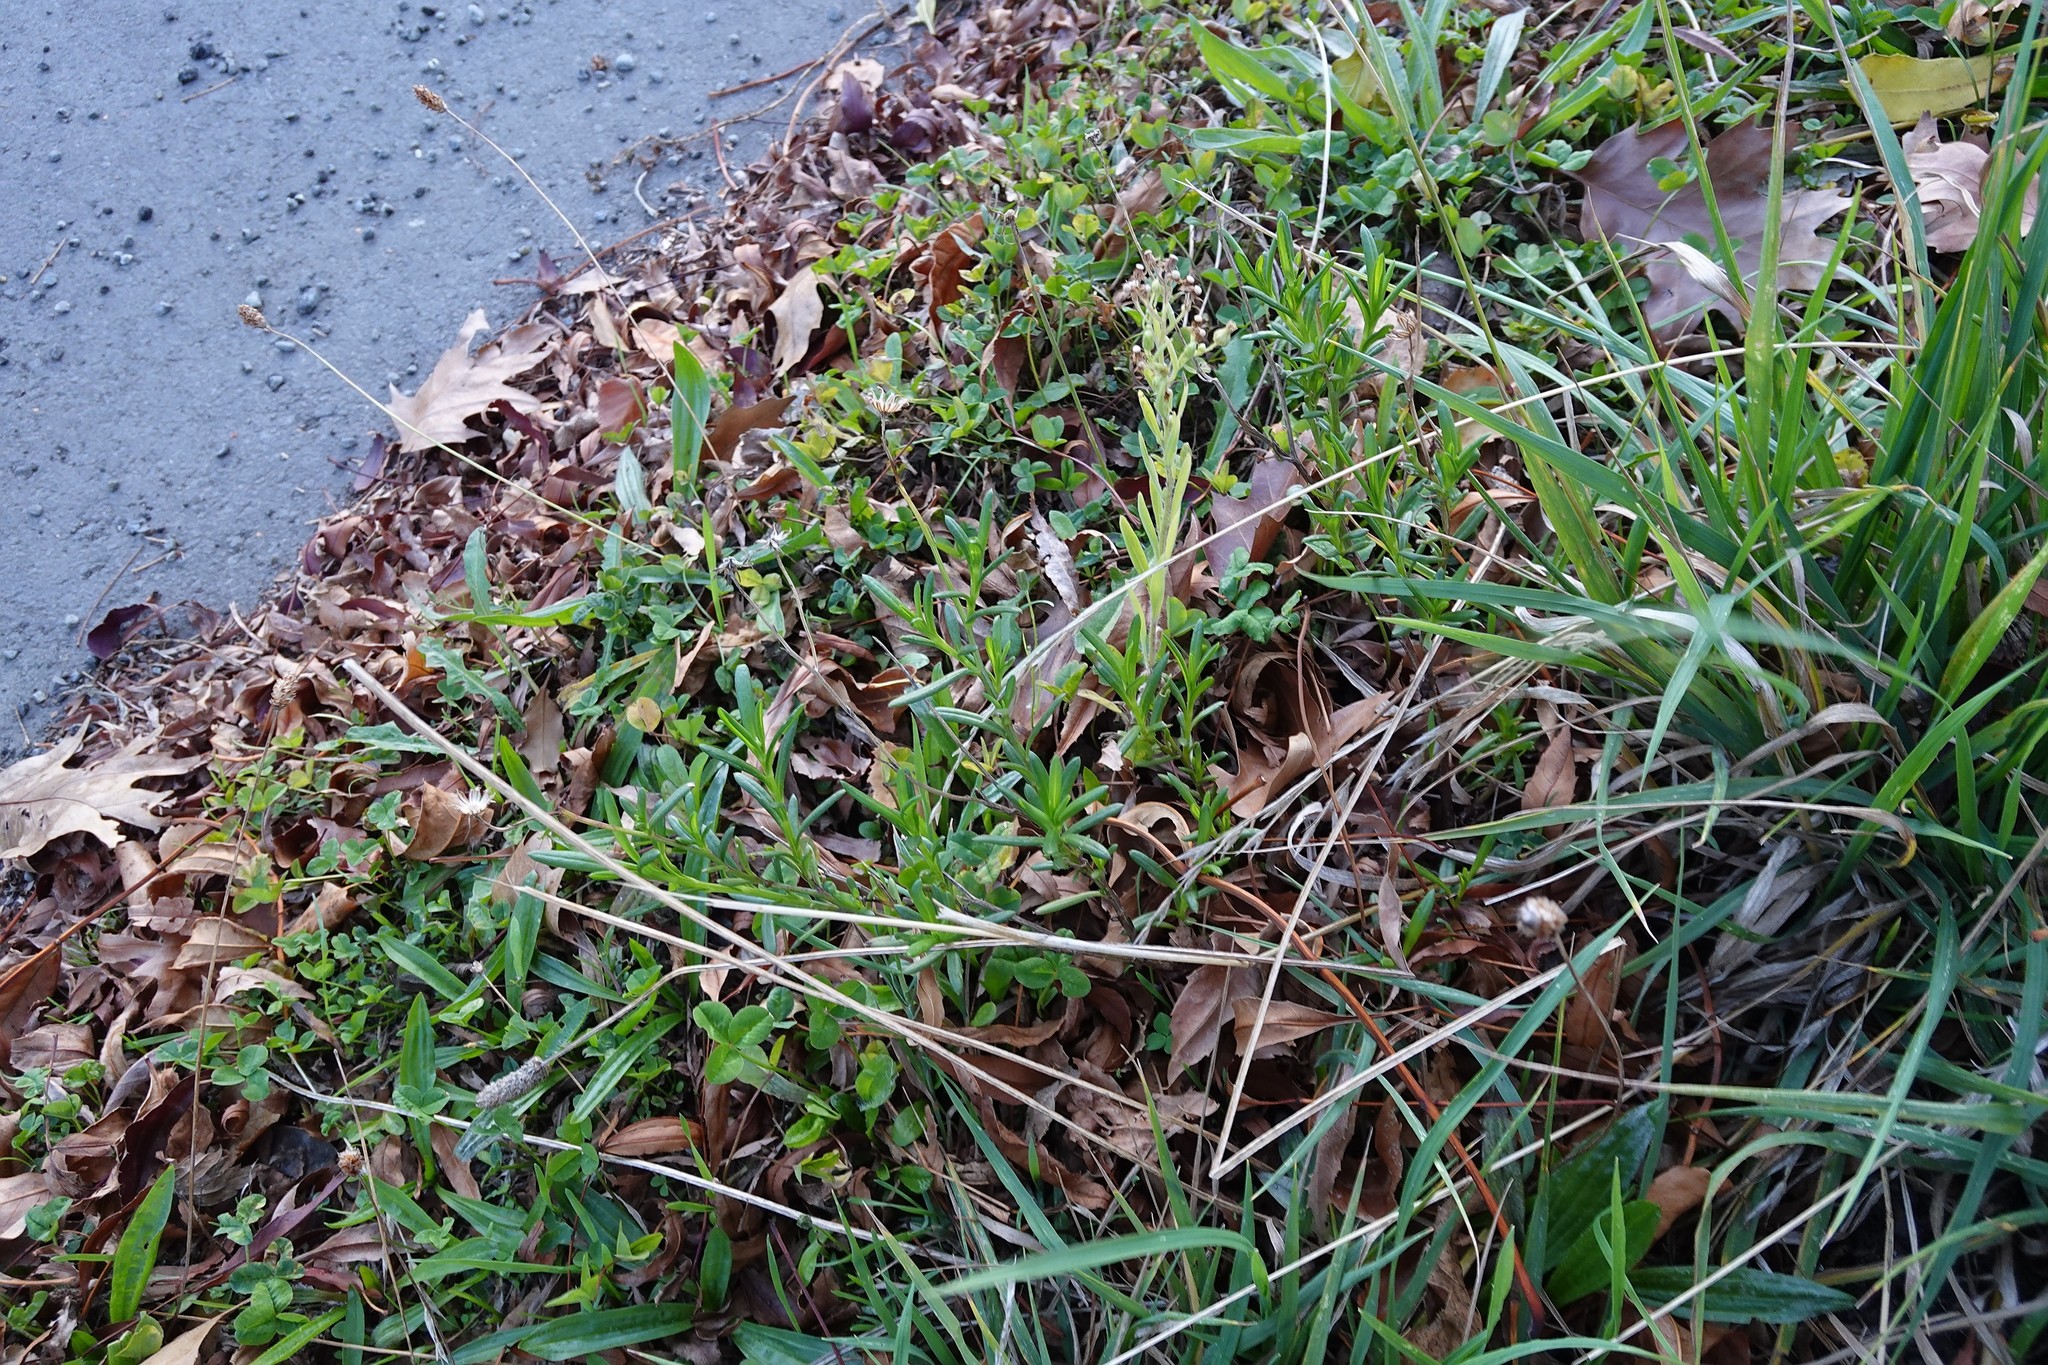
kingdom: Plantae
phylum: Tracheophyta
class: Magnoliopsida
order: Asterales
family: Asteraceae
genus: Senecio
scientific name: Senecio skirrhodon
